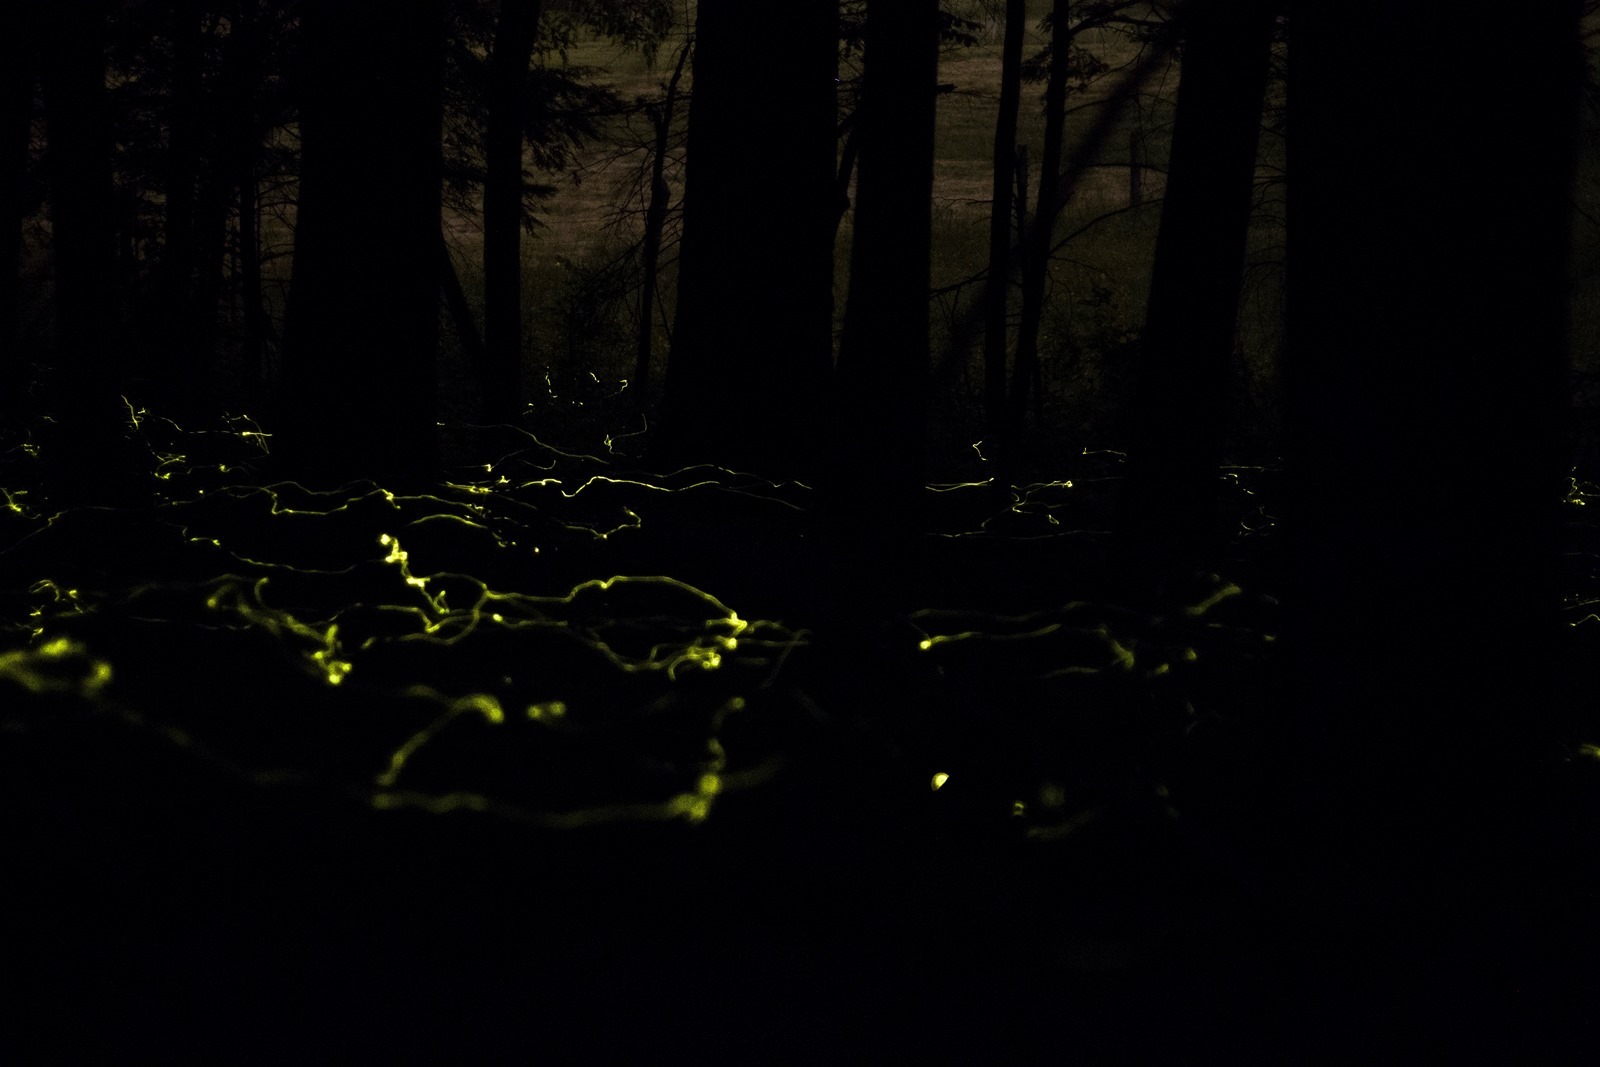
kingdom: Animalia
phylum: Arthropoda
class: Insecta
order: Coleoptera
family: Lampyridae
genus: Phausis
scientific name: Phausis reticulata
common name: Blue ghost firefly
